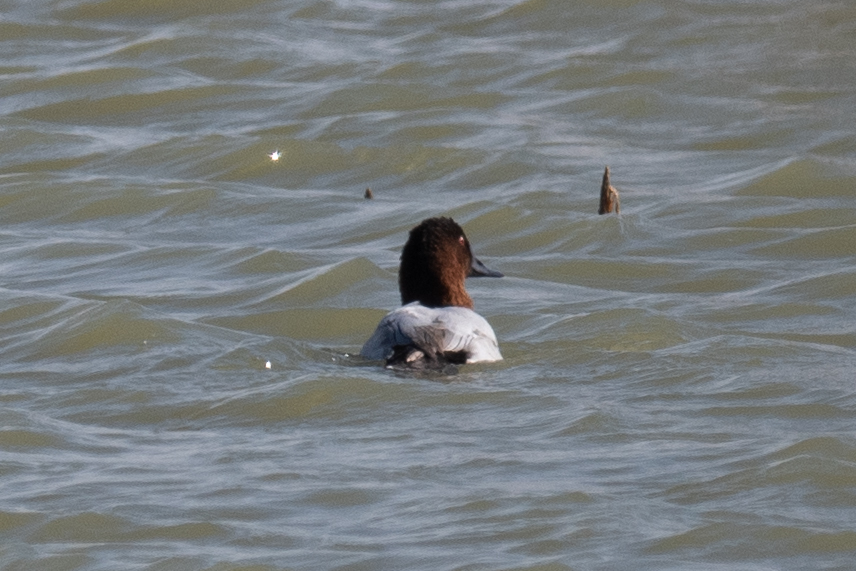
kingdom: Animalia
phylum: Chordata
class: Aves
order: Anseriformes
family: Anatidae
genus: Aythya
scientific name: Aythya valisineria
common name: Canvasback
